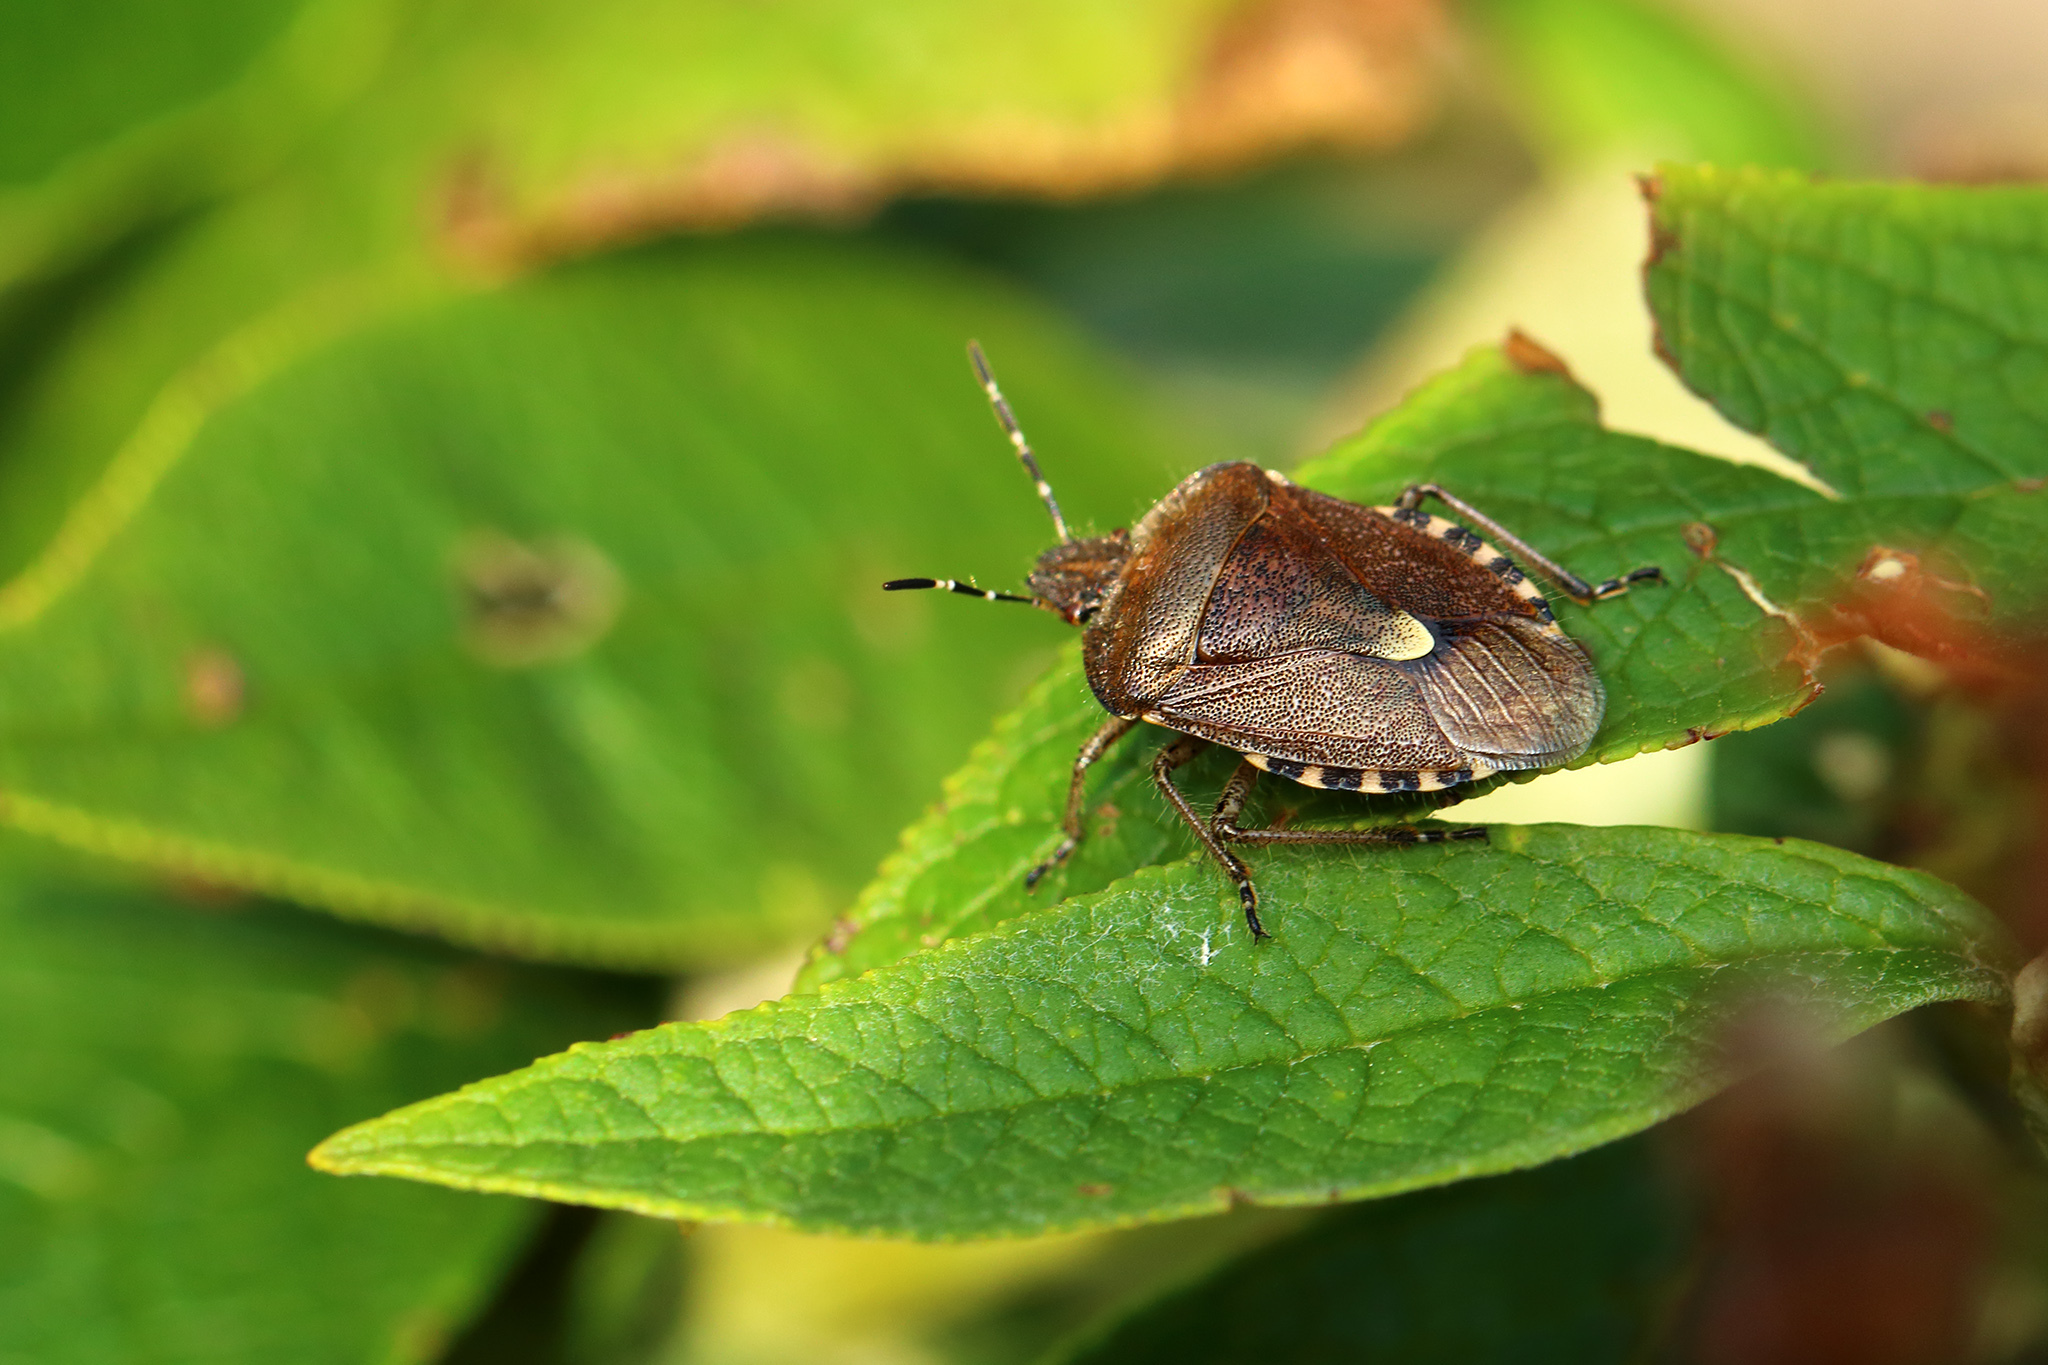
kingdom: Animalia
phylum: Arthropoda
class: Insecta
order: Hemiptera
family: Pentatomidae
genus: Dolycoris
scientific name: Dolycoris baccarum
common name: Sloe bug
